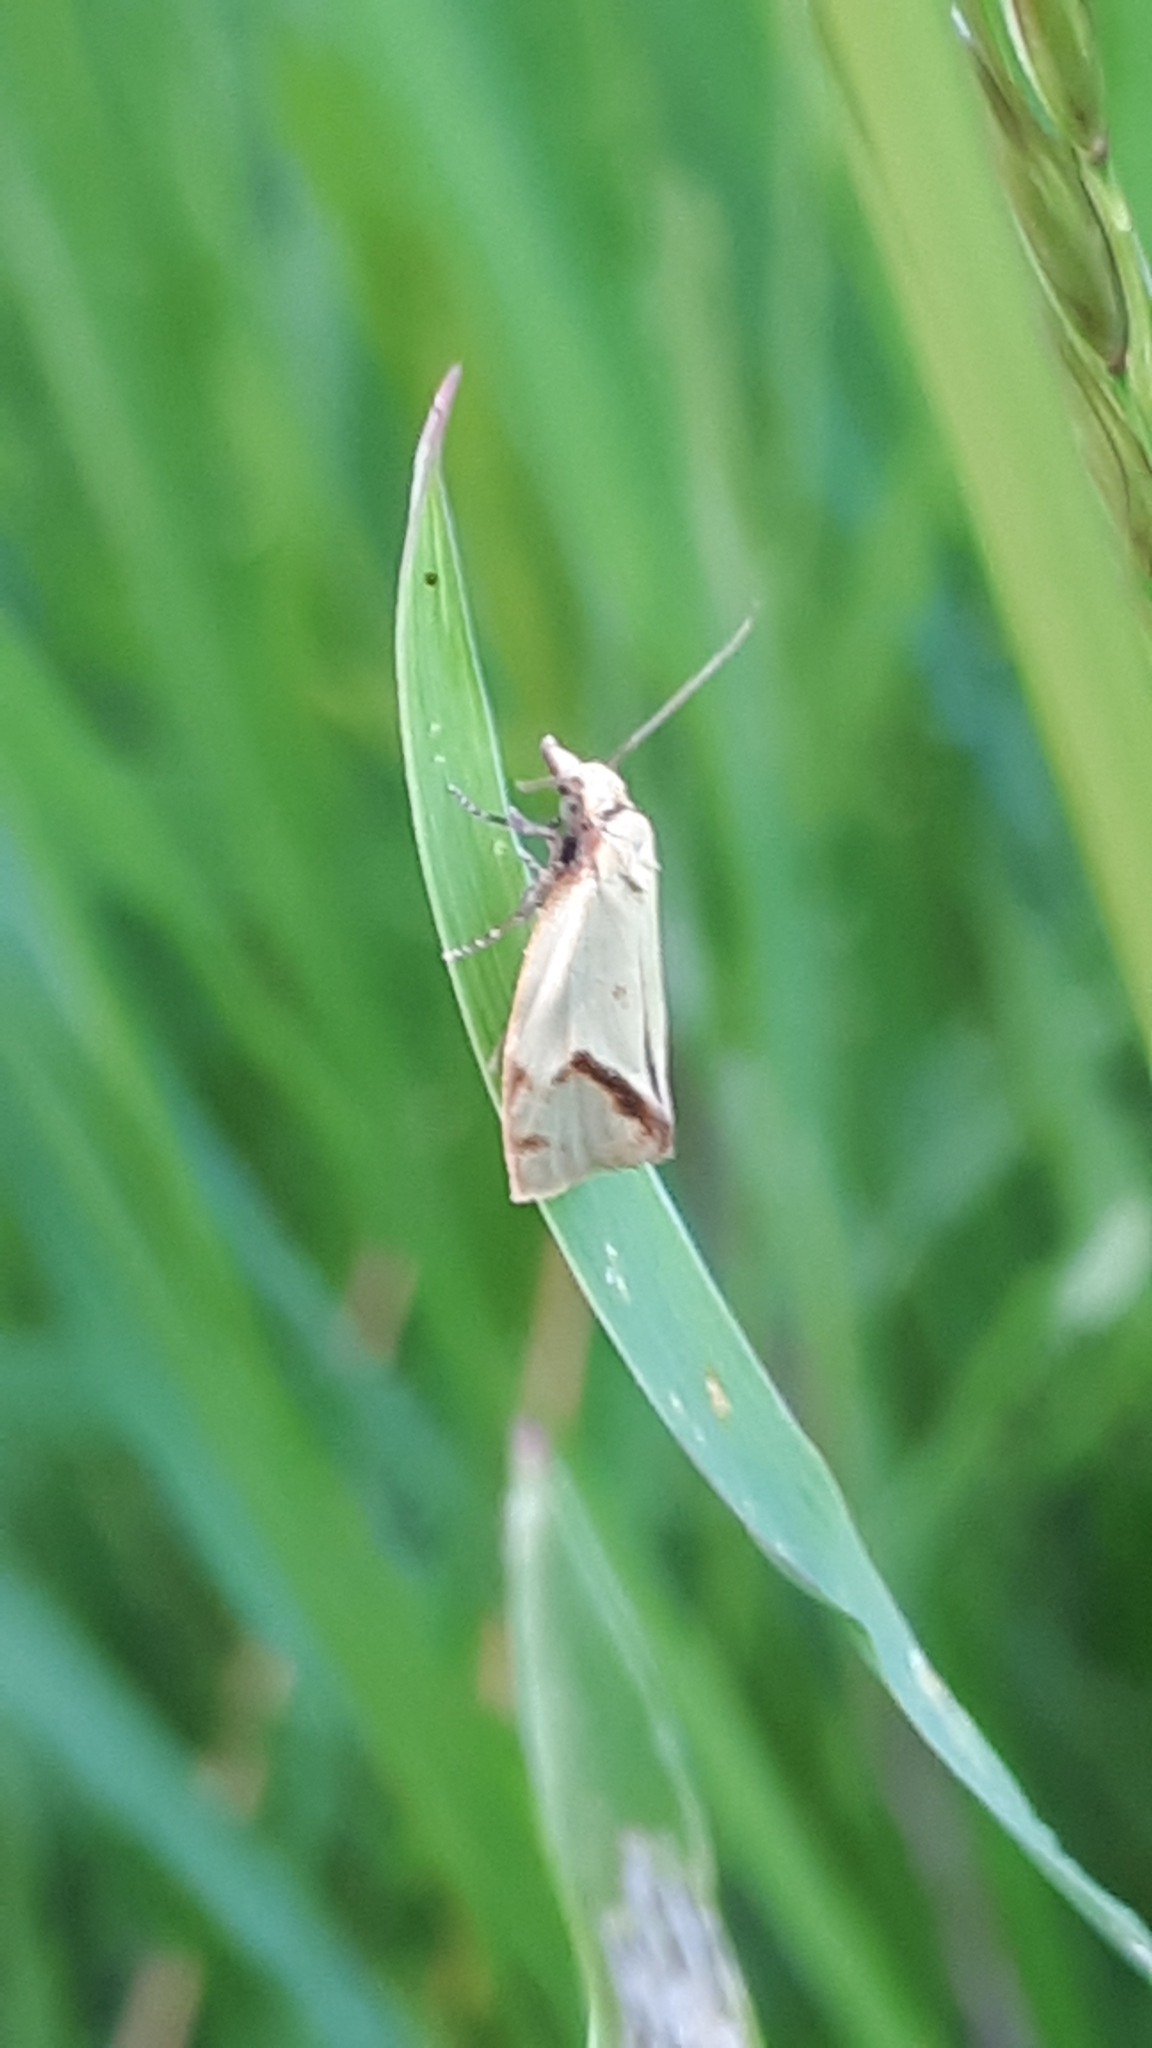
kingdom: Animalia
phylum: Arthropoda
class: Insecta
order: Lepidoptera
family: Tortricidae
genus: Agapeta
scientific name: Agapeta hamana
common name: Common yellow conch
